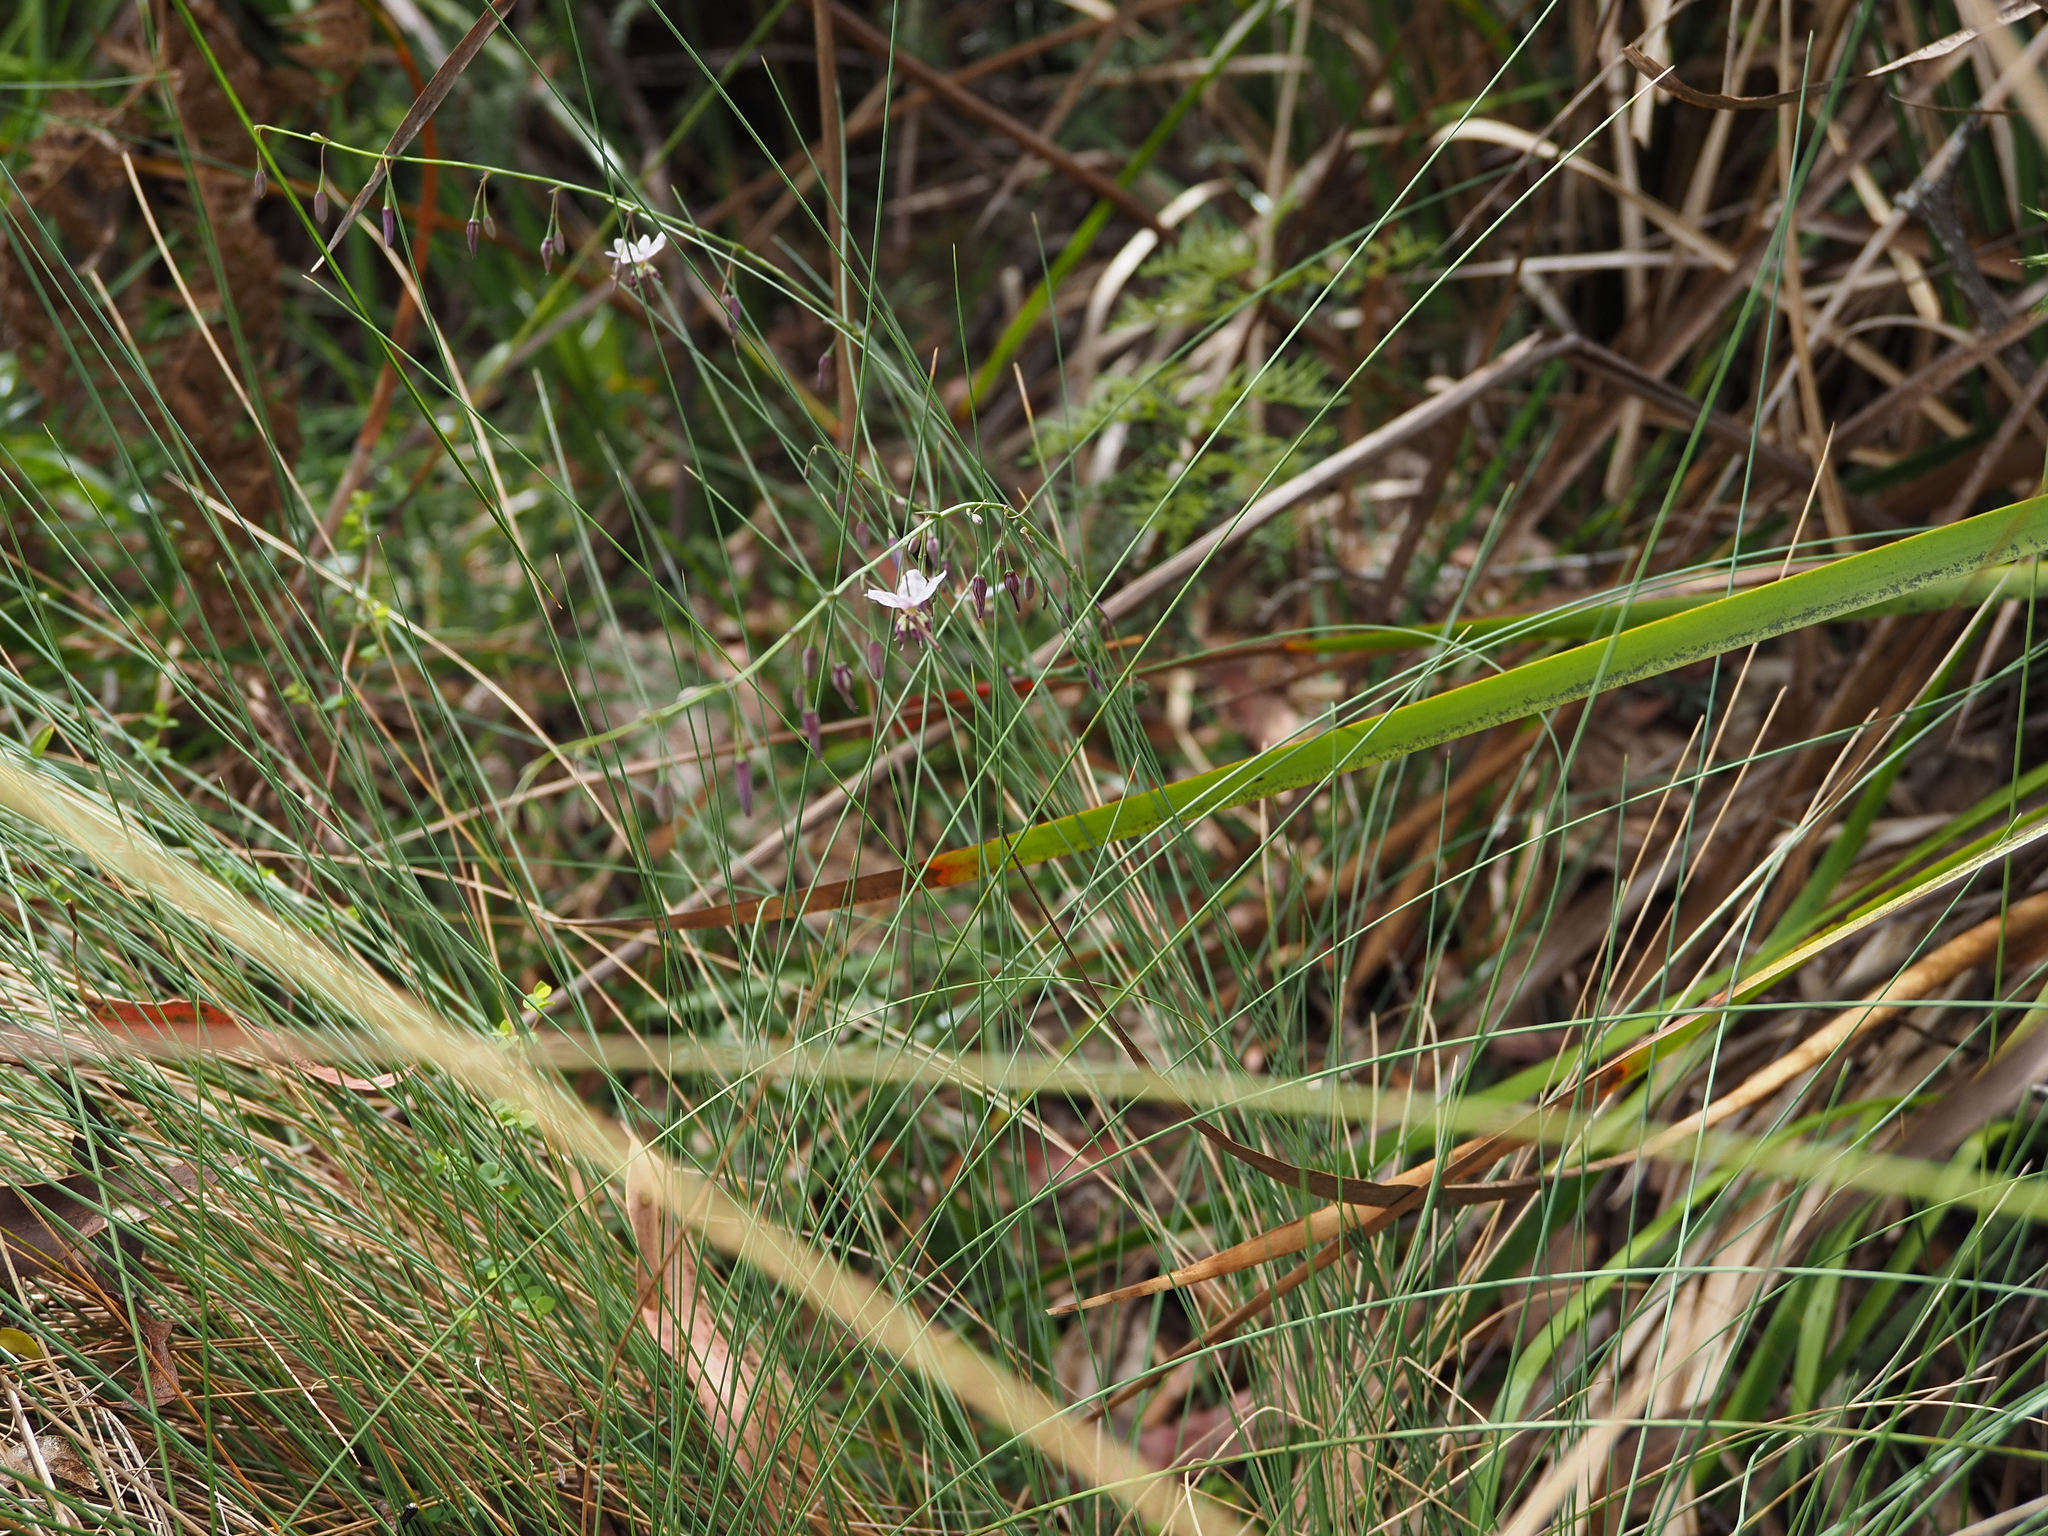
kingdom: Plantae
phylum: Tracheophyta
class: Liliopsida
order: Asparagales
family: Asparagaceae
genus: Arthropodium
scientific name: Arthropodium pendulum
